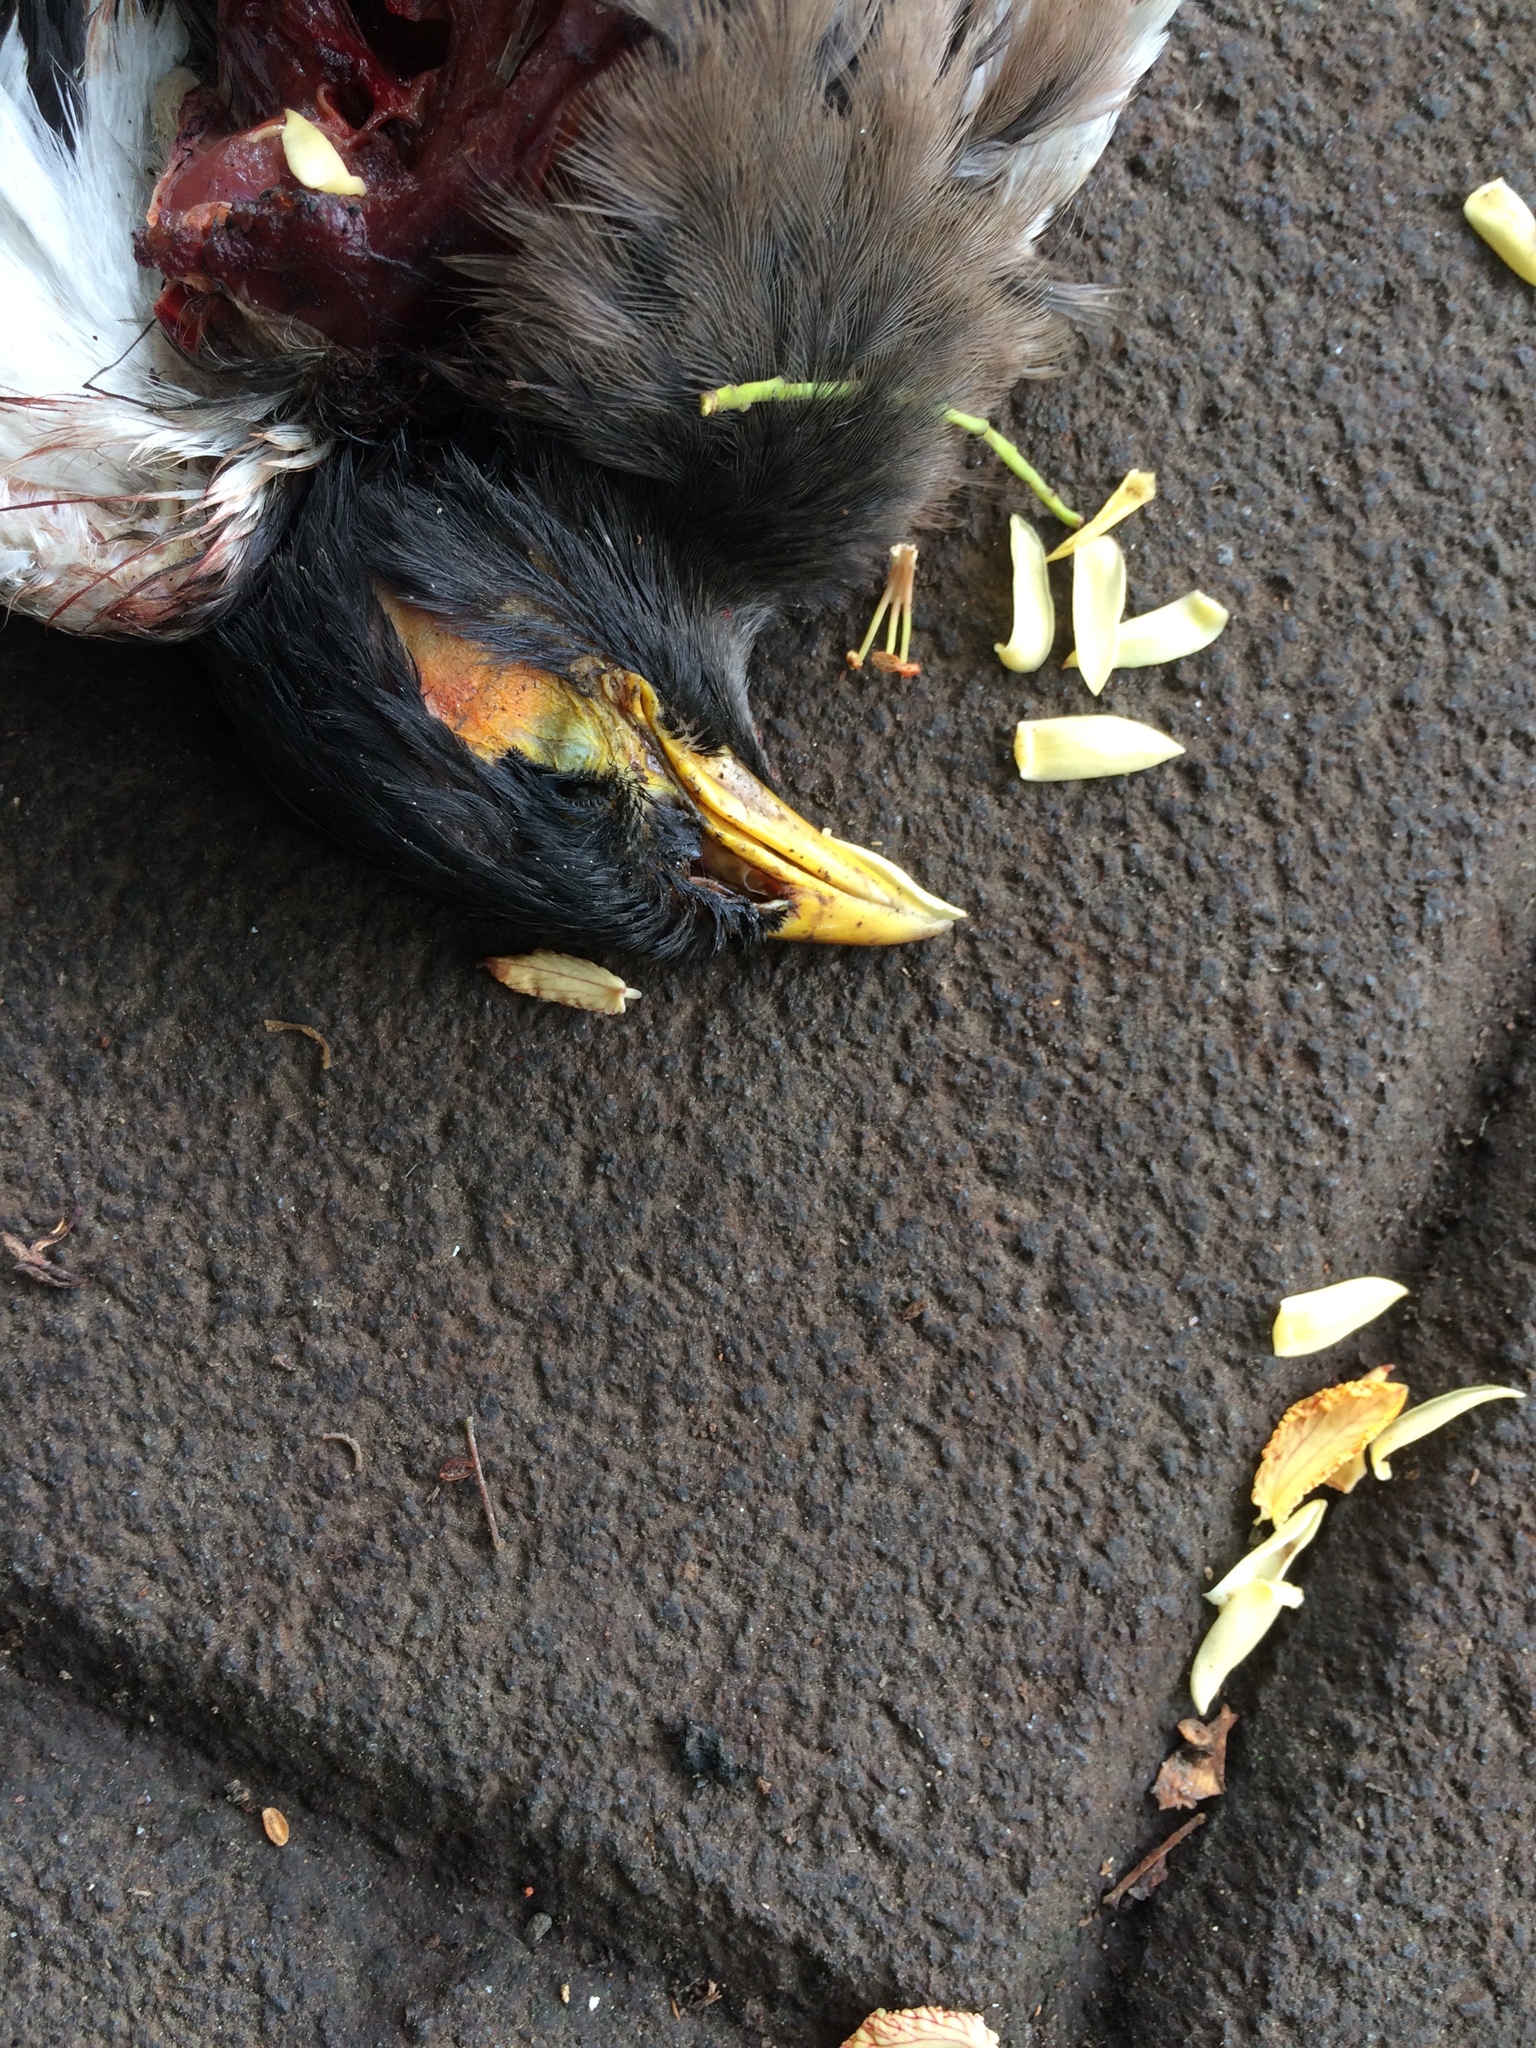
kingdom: Animalia
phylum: Chordata
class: Aves
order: Passeriformes
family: Sturnidae
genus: Acridotheres
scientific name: Acridotheres tristis
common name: Common myna
